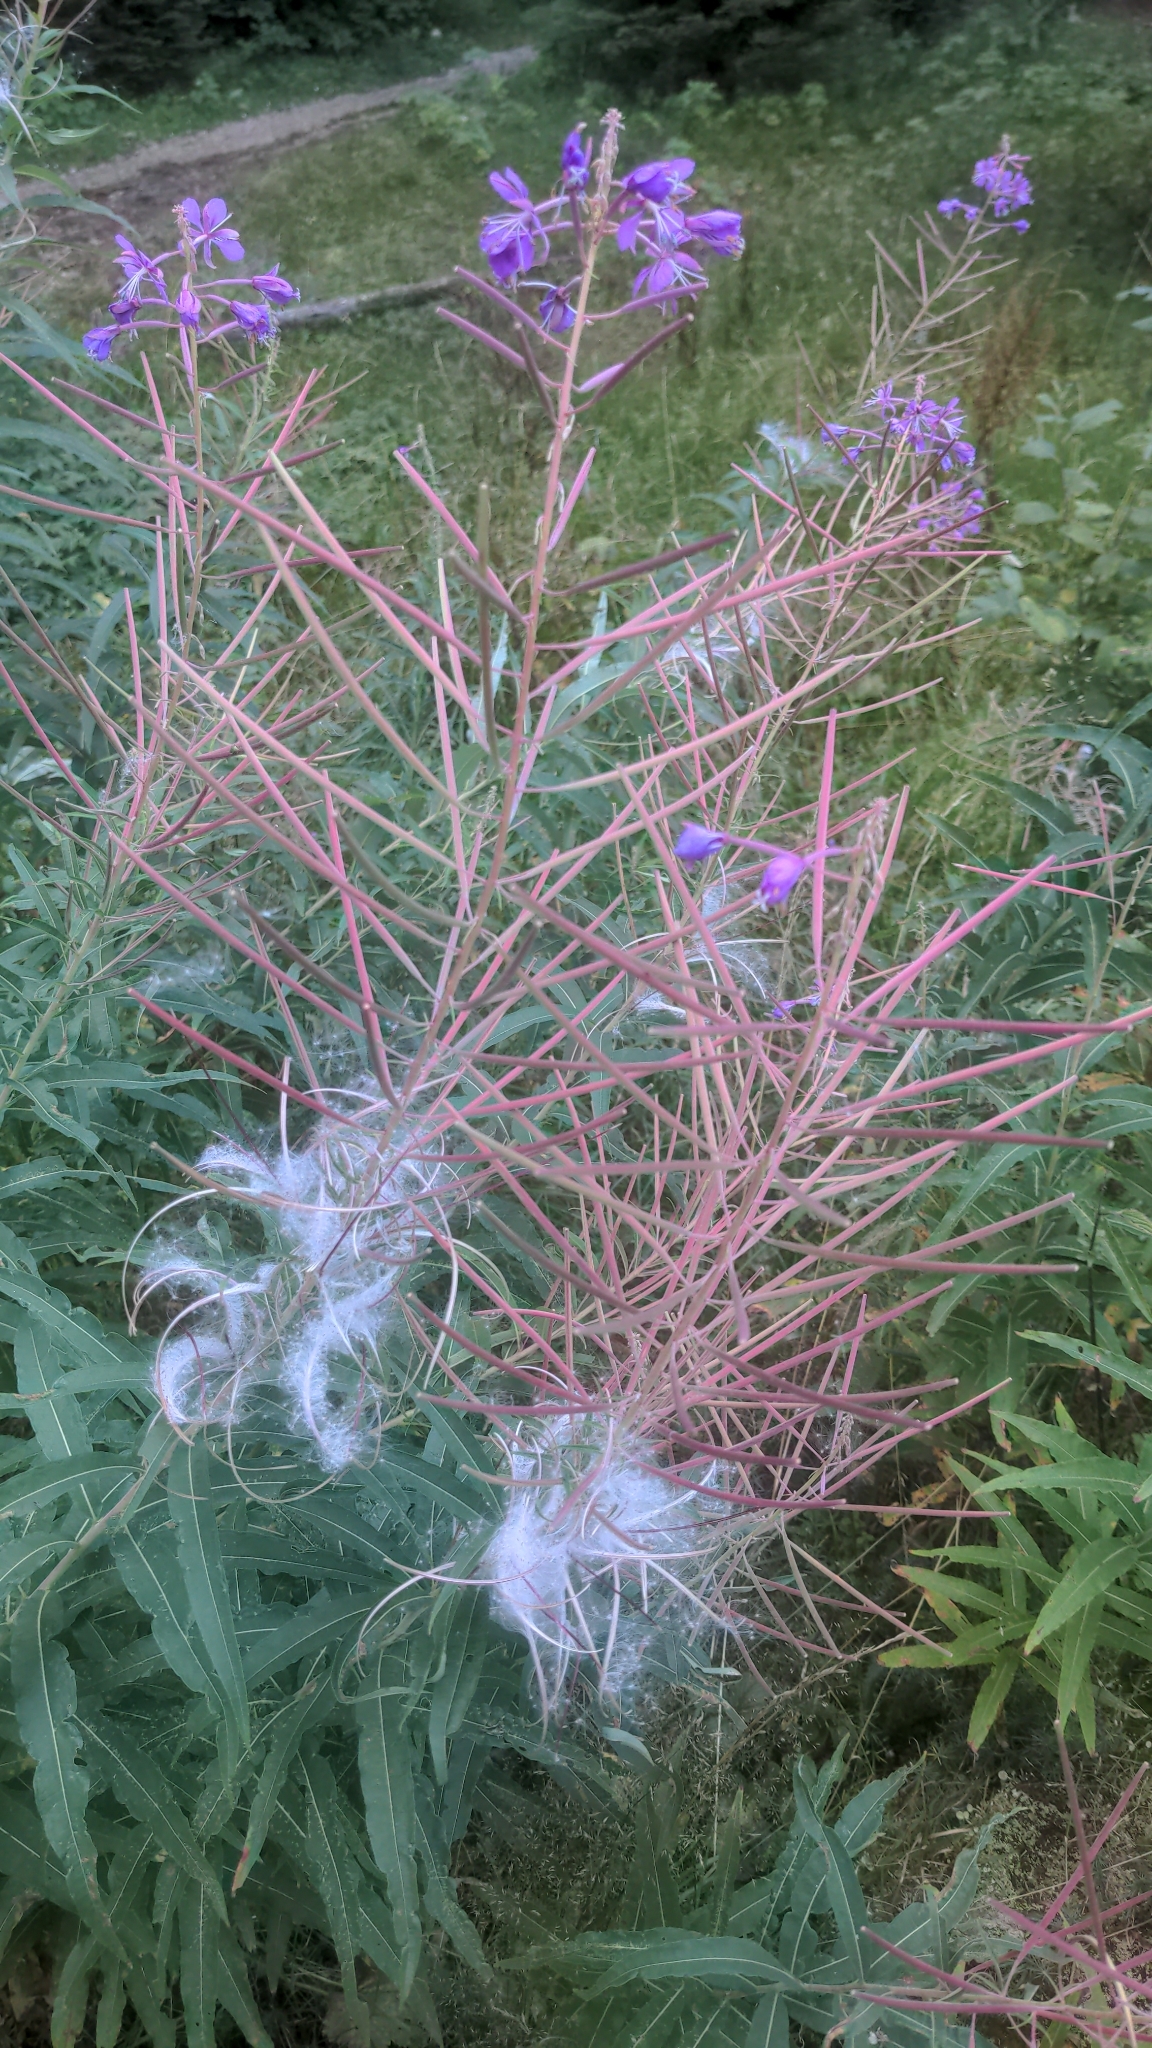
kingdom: Plantae
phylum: Tracheophyta
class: Magnoliopsida
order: Myrtales
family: Onagraceae
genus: Chamaenerion
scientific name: Chamaenerion angustifolium
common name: Fireweed
